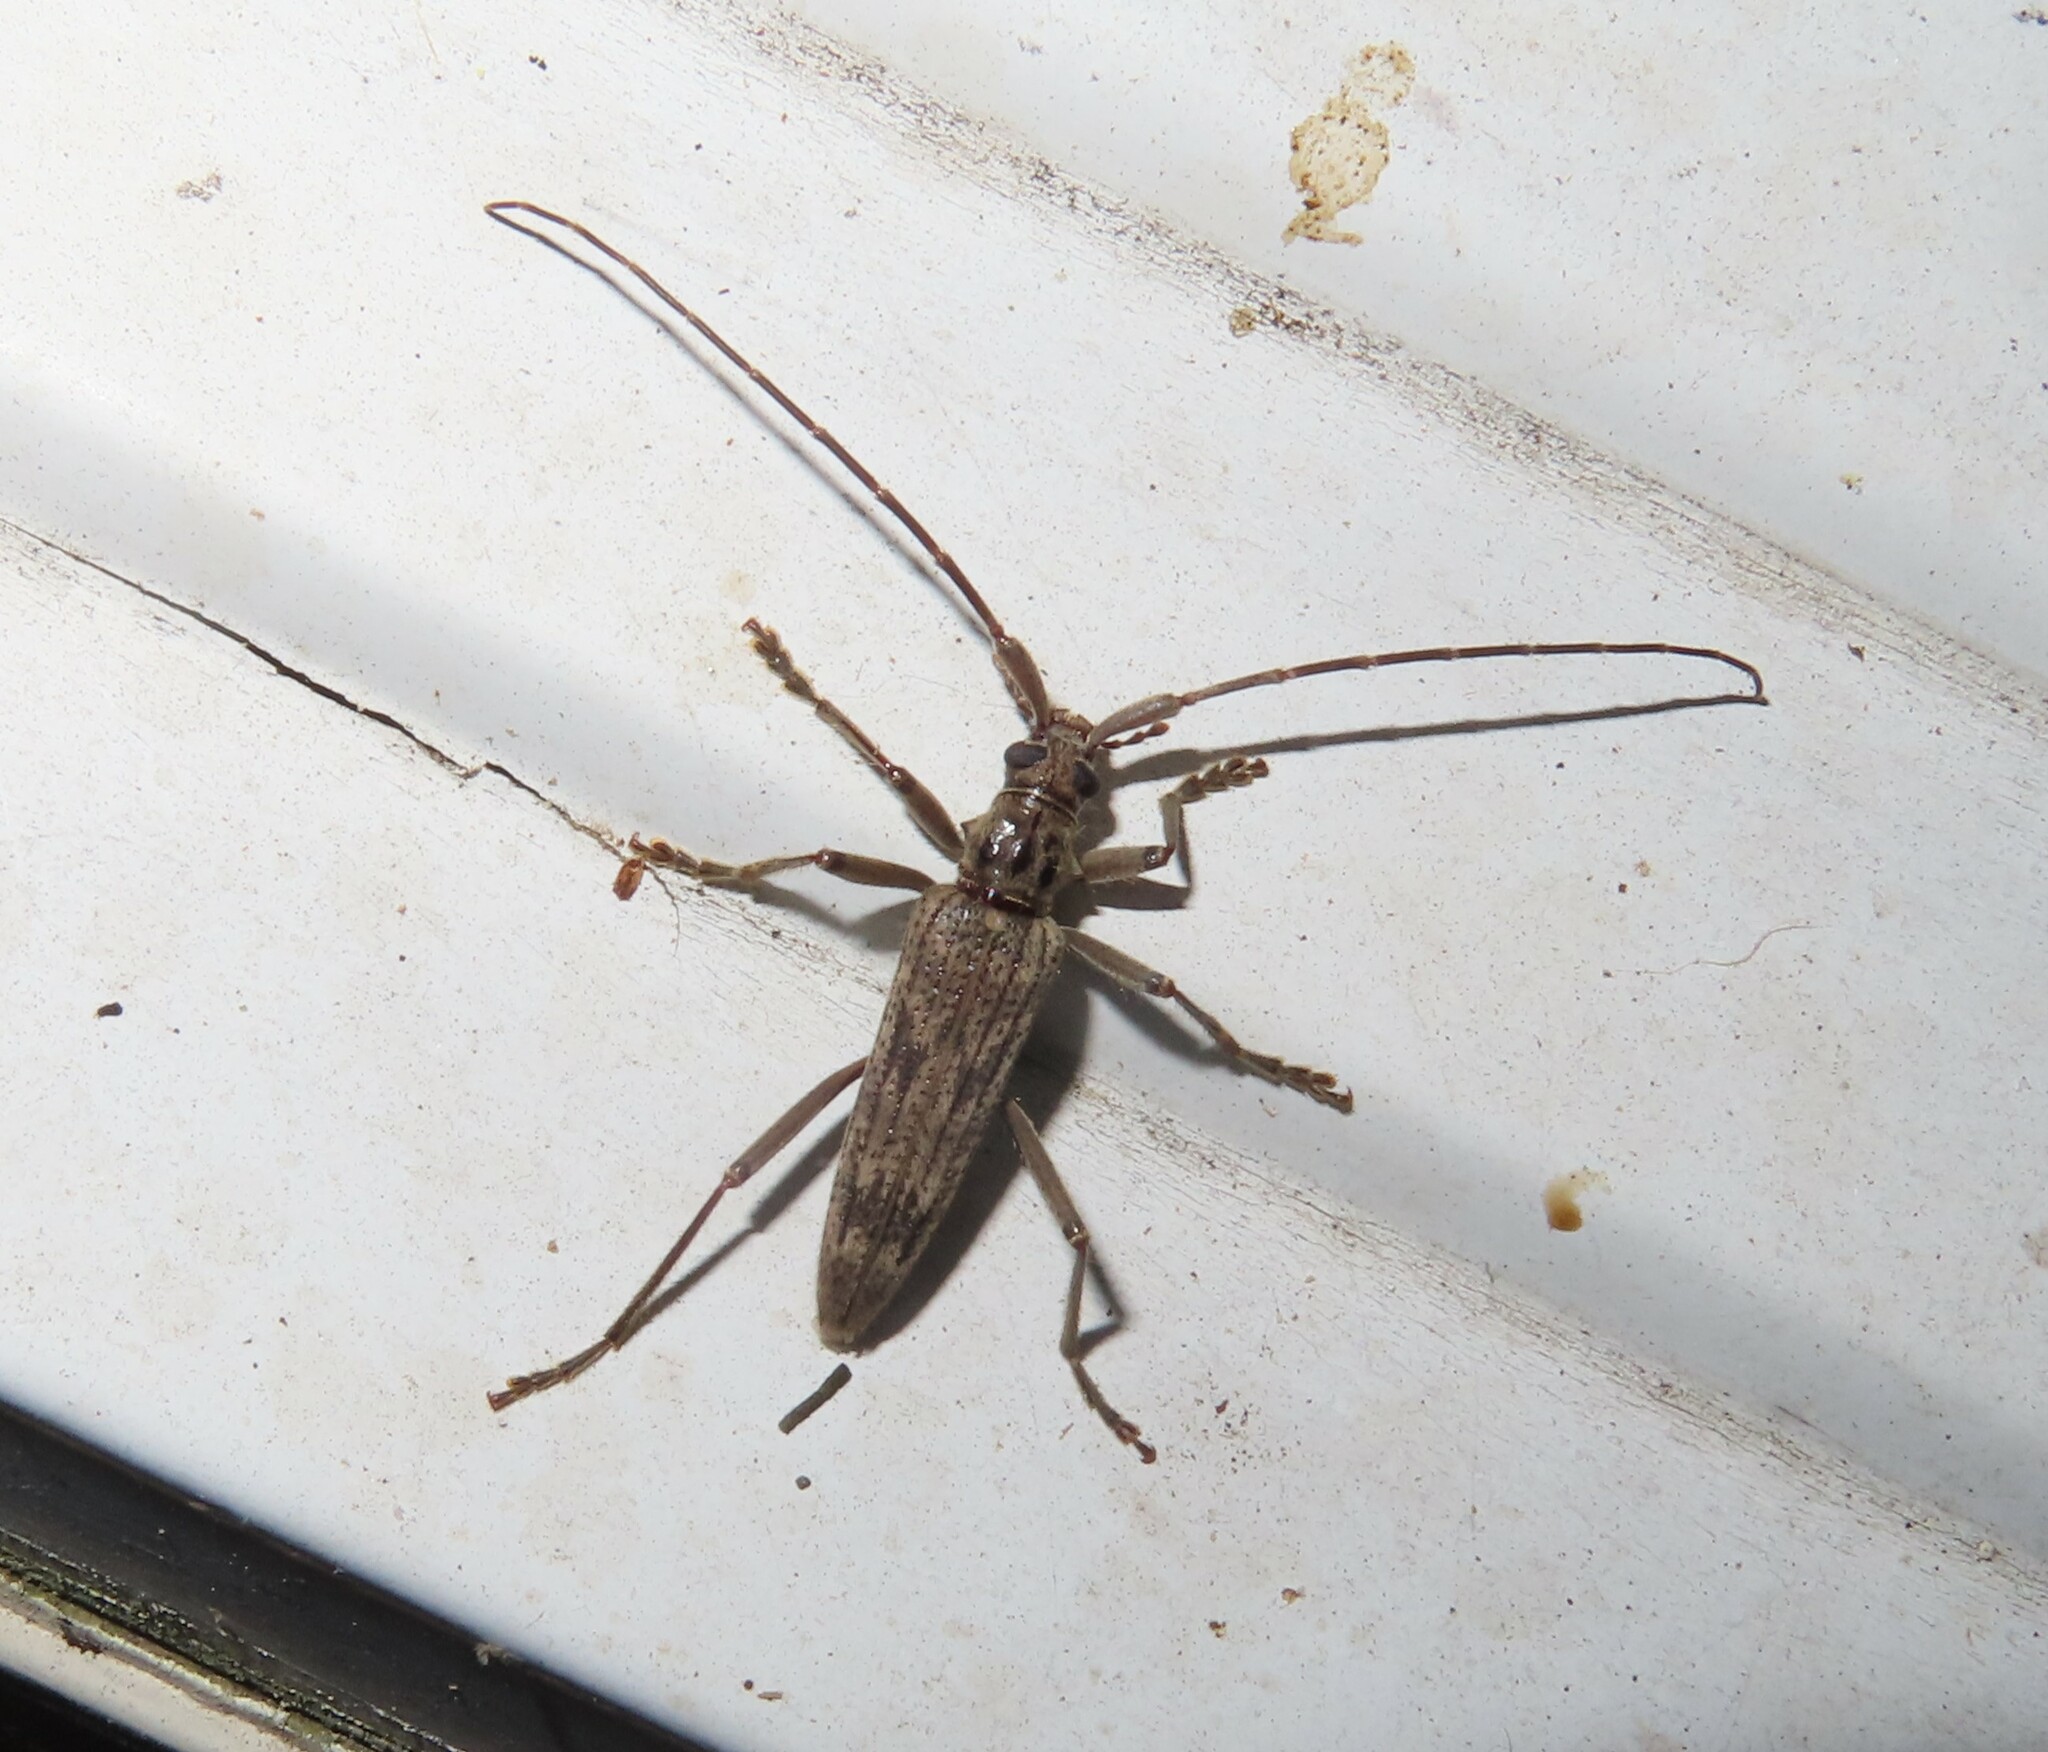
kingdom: Animalia
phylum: Arthropoda
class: Insecta
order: Coleoptera
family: Cerambycidae
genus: Elytrimitatrix
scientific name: Elytrimitatrix undata
